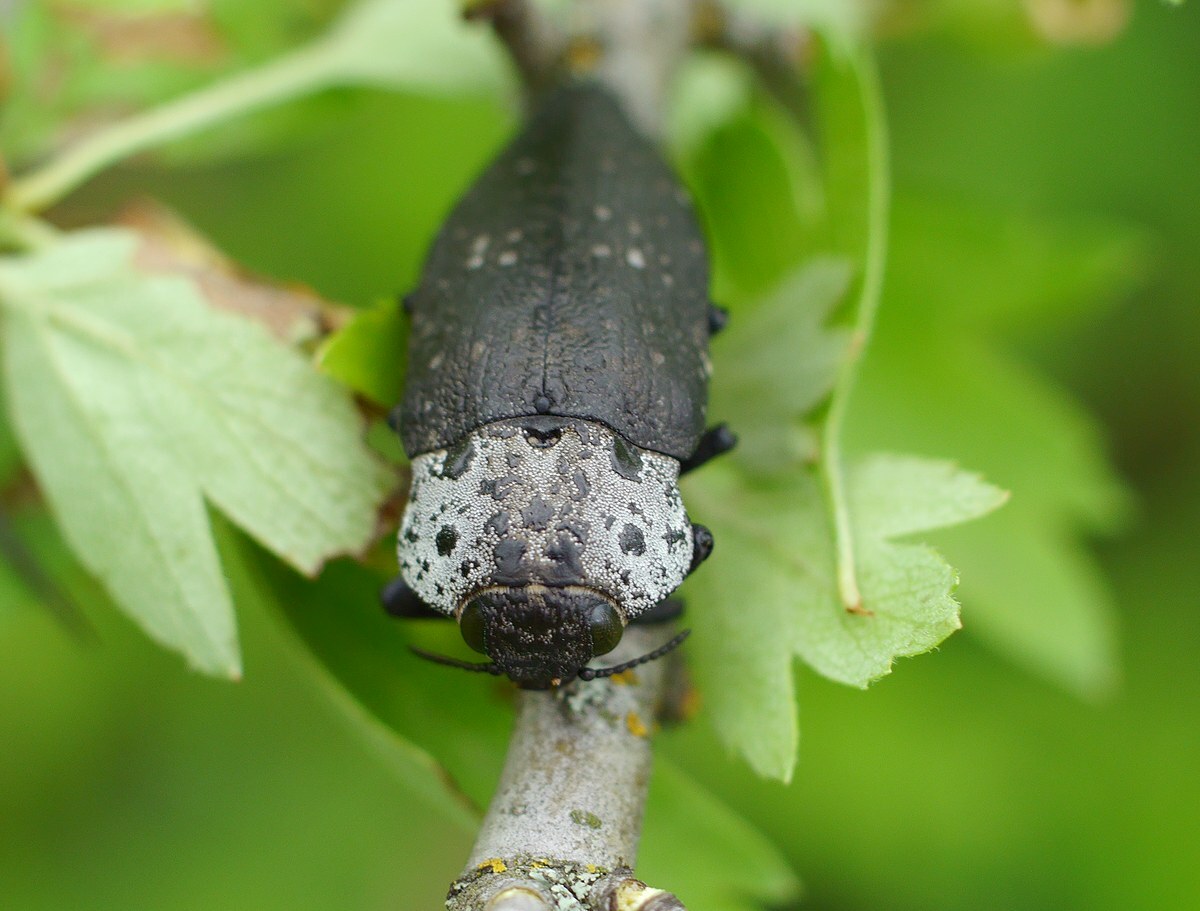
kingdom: Animalia
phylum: Arthropoda
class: Insecta
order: Coleoptera
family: Buprestidae
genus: Capnodis
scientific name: Capnodis tenebrionis
